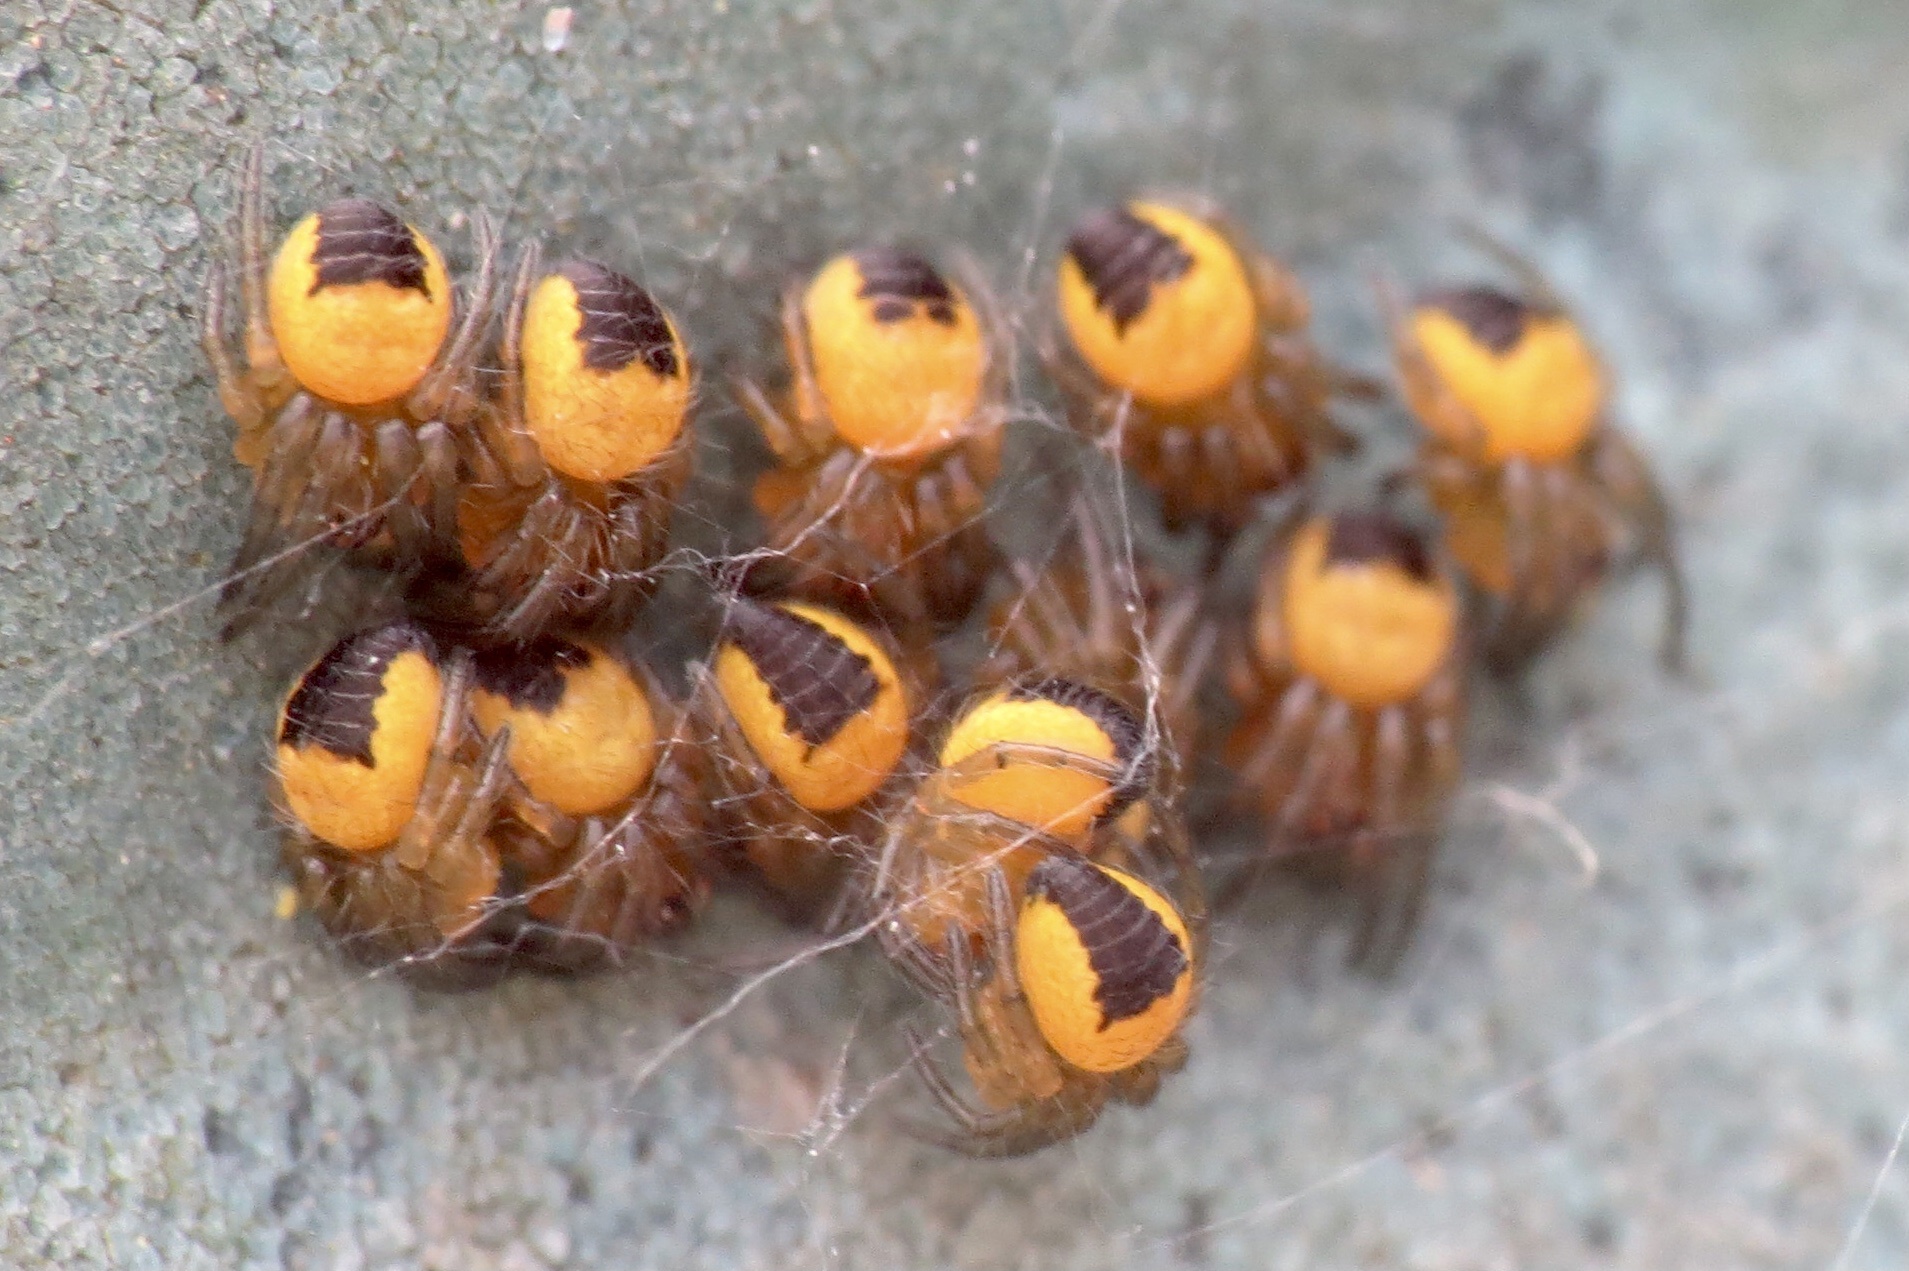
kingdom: Animalia
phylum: Arthropoda
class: Arachnida
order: Araneae
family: Araneidae
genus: Araneus
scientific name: Araneus diadematus
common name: Cross orbweaver
